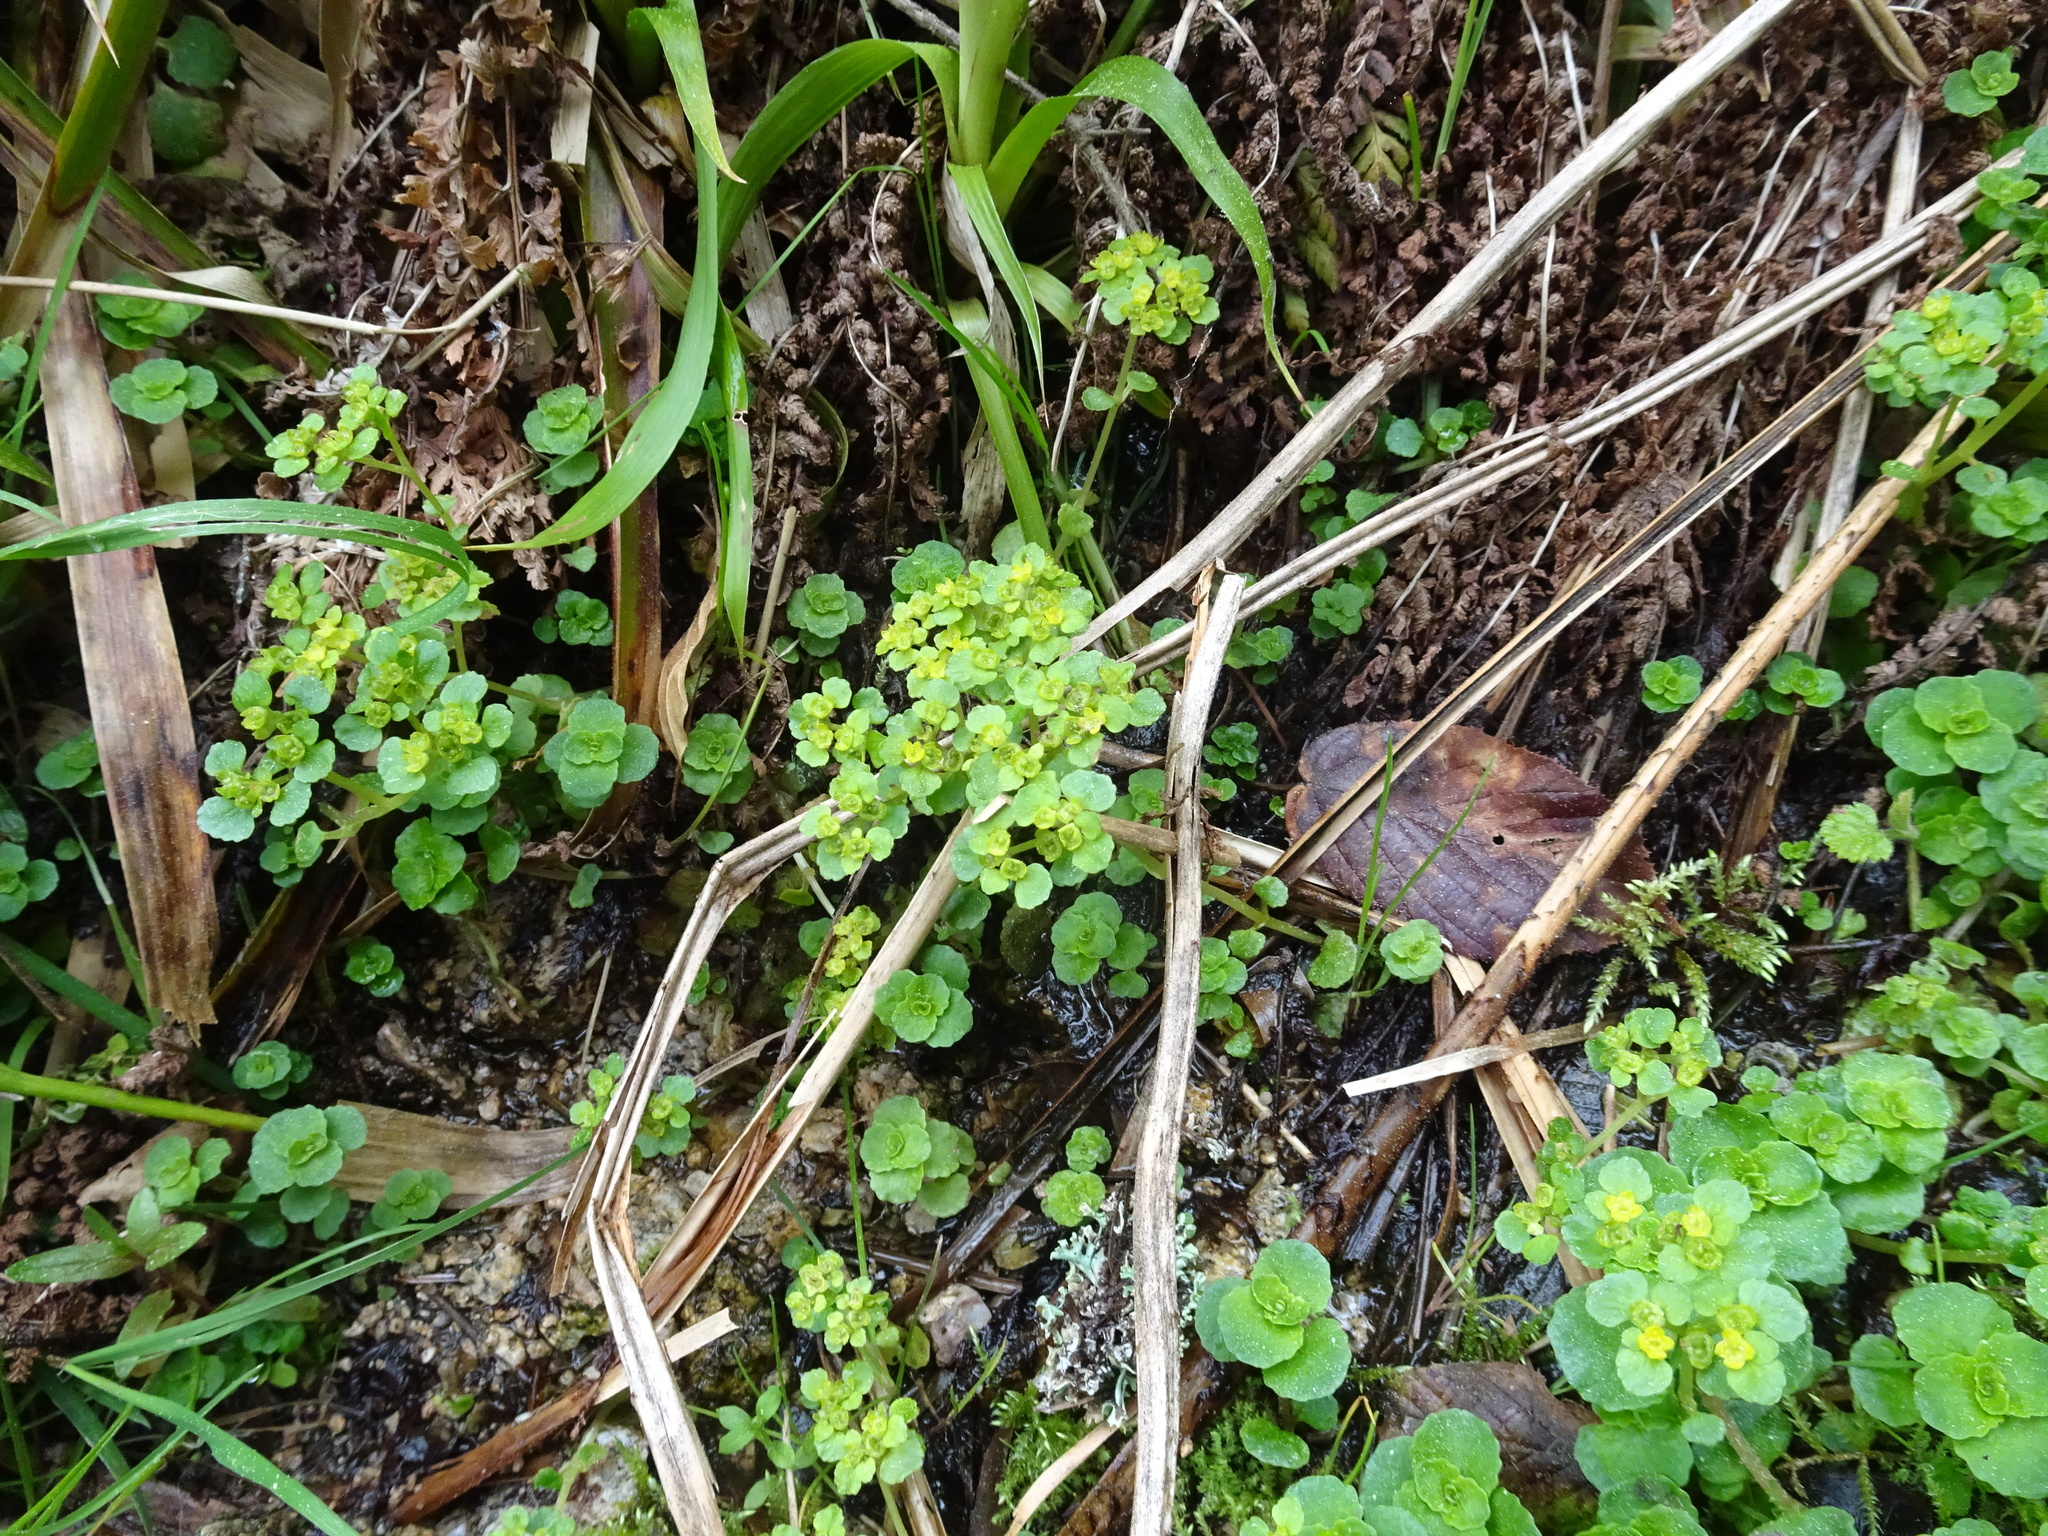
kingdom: Plantae
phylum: Tracheophyta
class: Magnoliopsida
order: Saxifragales
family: Saxifragaceae
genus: Chrysosplenium
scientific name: Chrysosplenium oppositifolium
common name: Opposite-leaved golden-saxifrage
